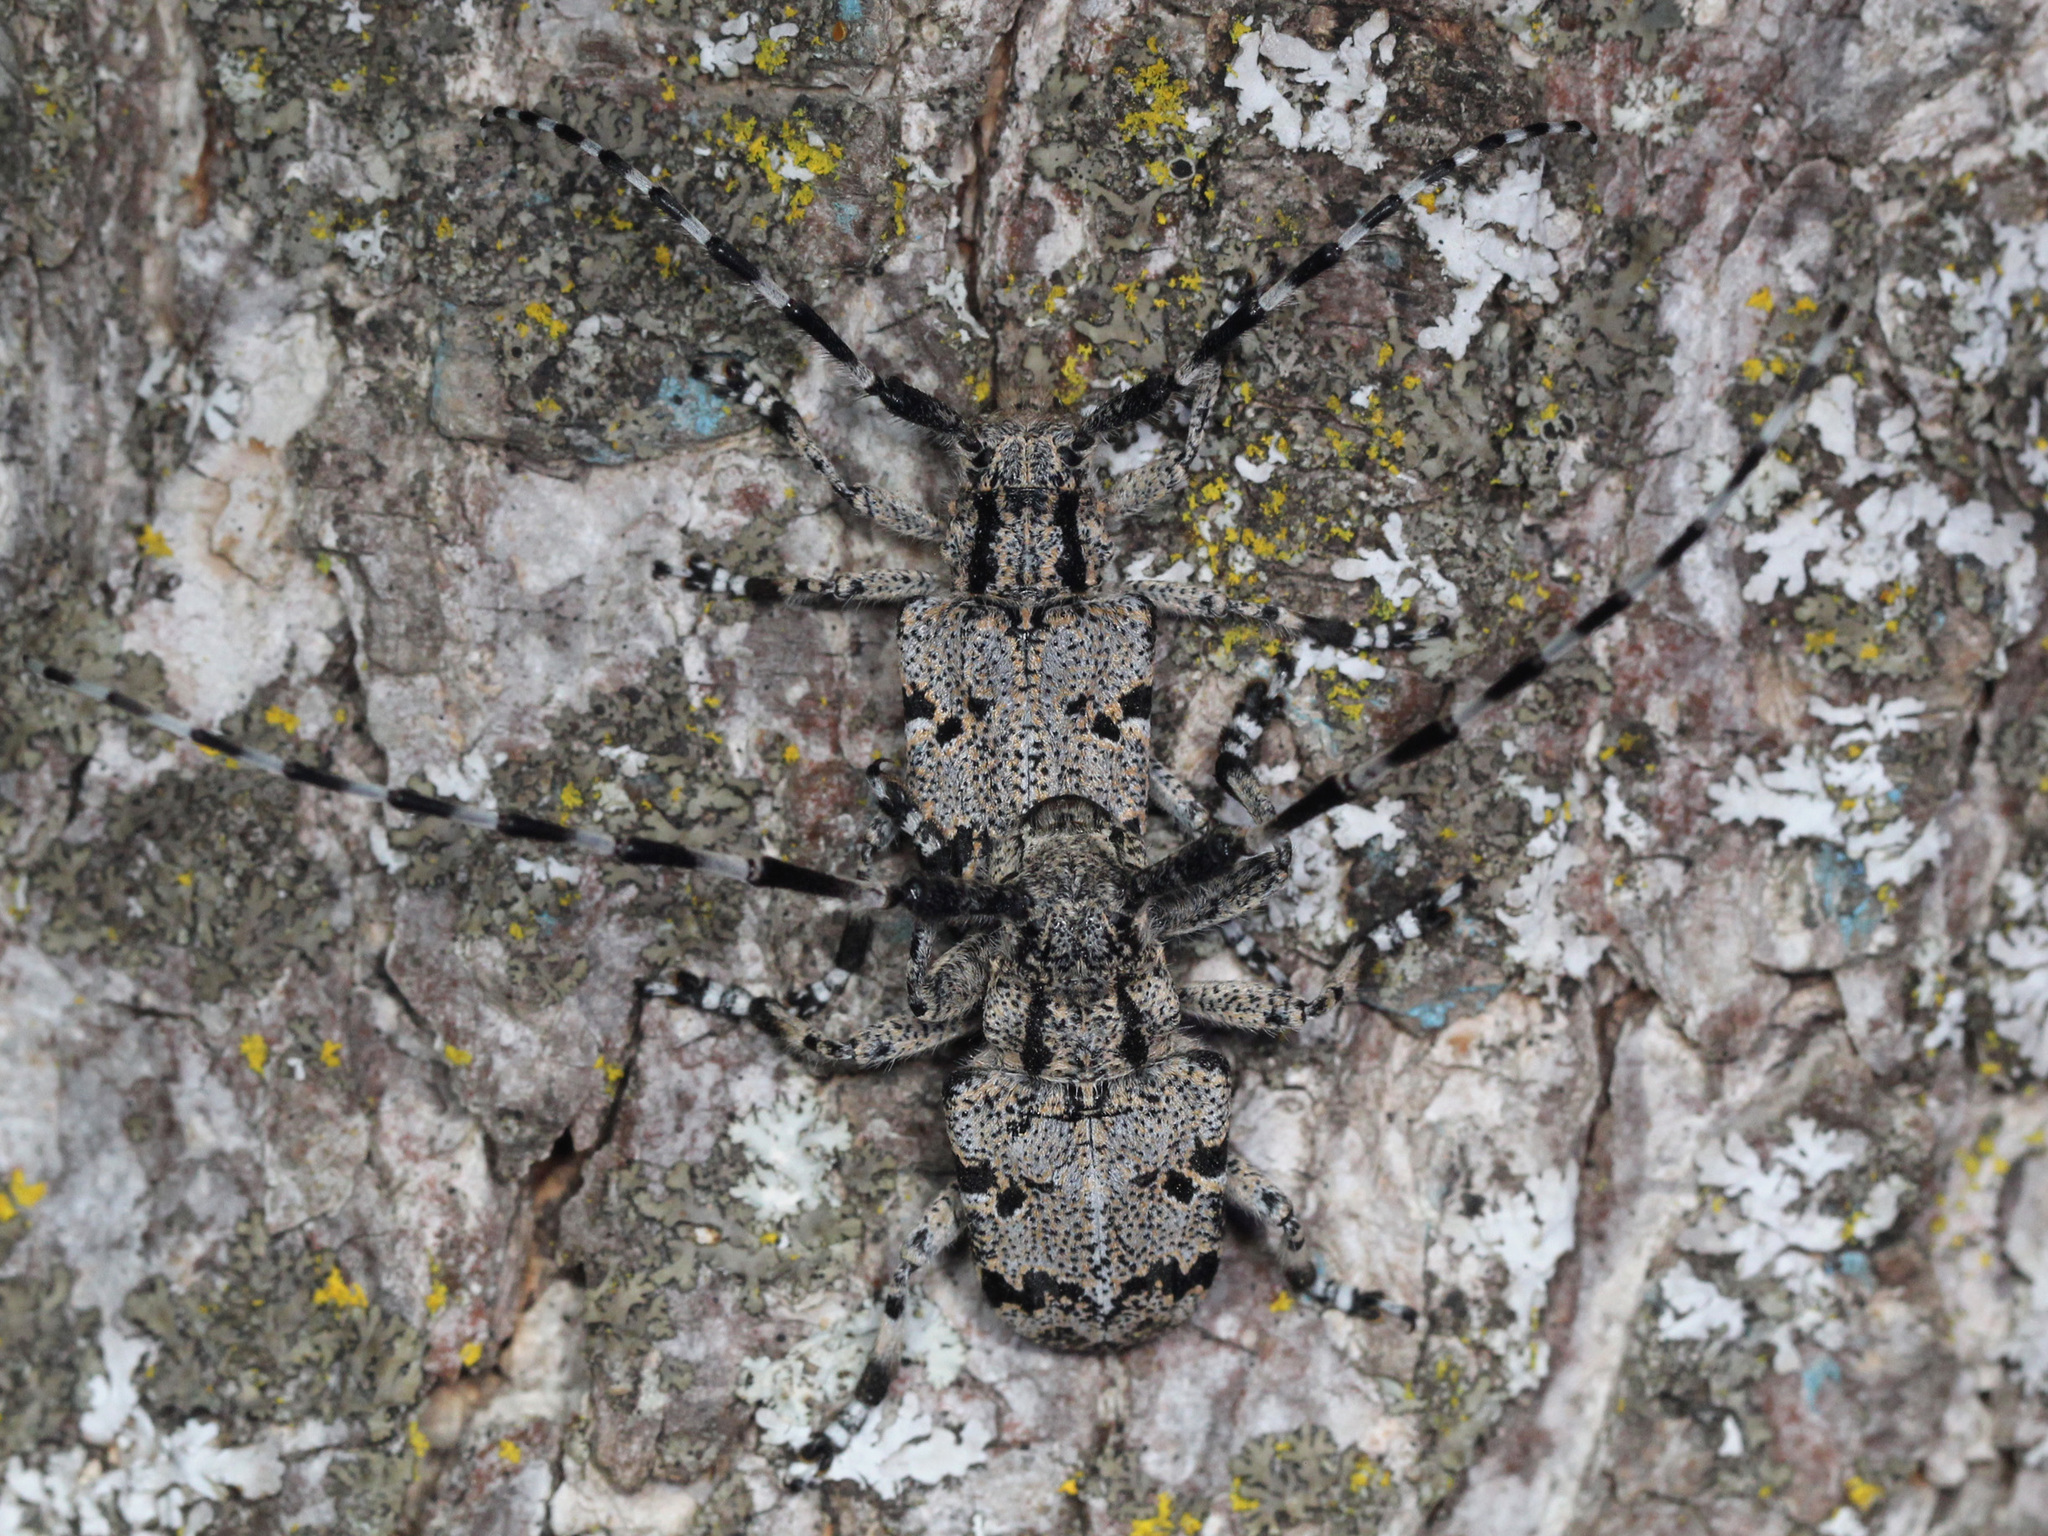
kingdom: Animalia
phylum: Arthropoda
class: Insecta
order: Coleoptera
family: Cerambycidae
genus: Synaphaeta
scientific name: Synaphaeta guexi
